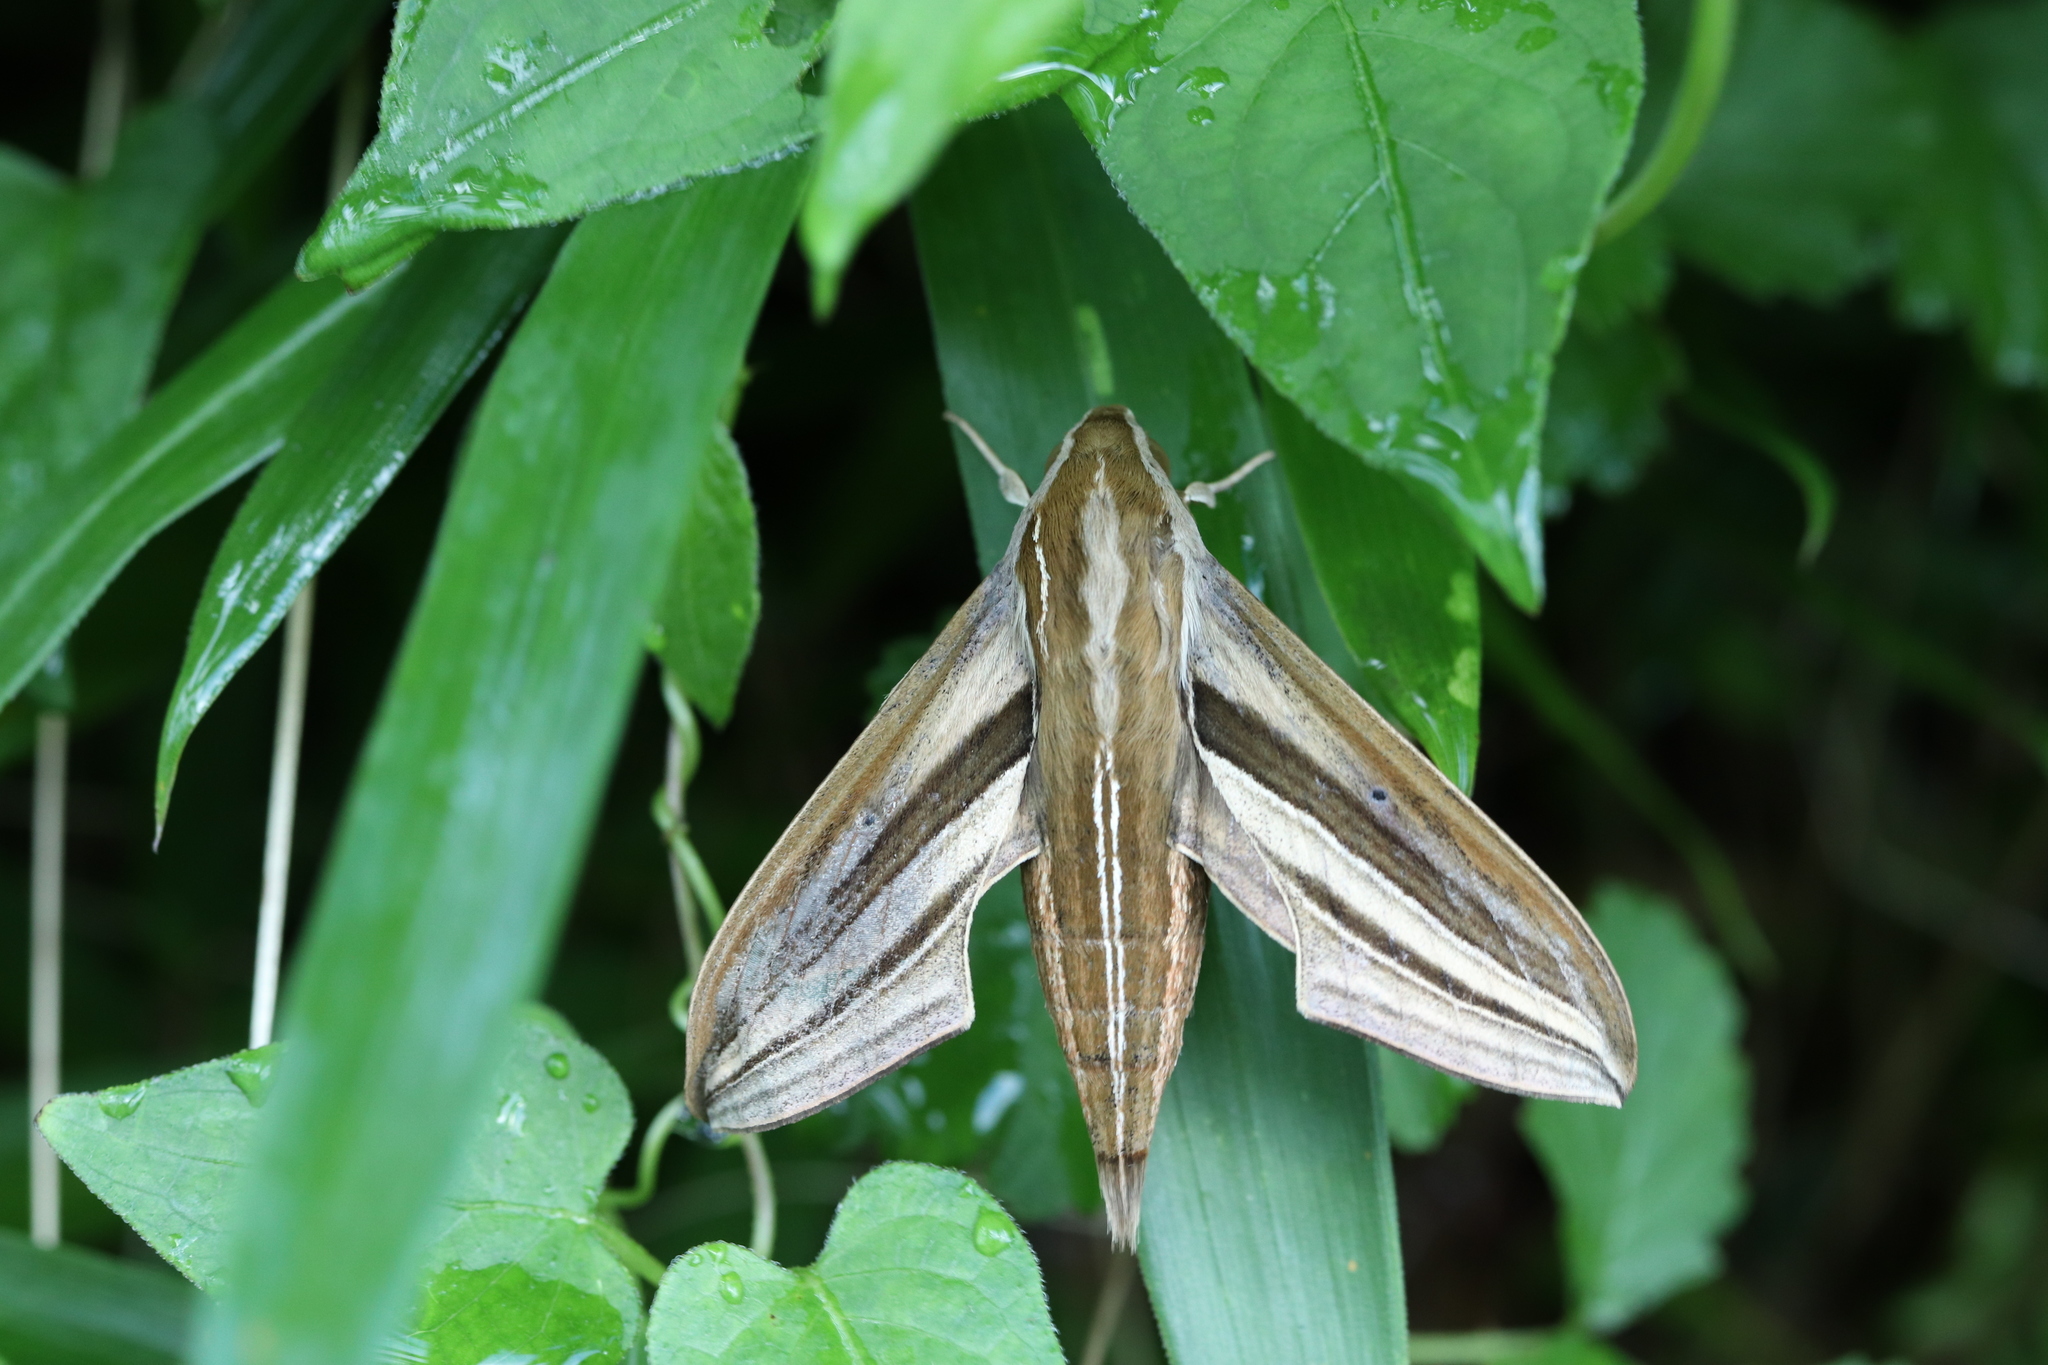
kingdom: Animalia
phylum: Arthropoda
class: Insecta
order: Lepidoptera
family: Sphingidae
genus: Theretra
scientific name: Theretra oldenlandiae
